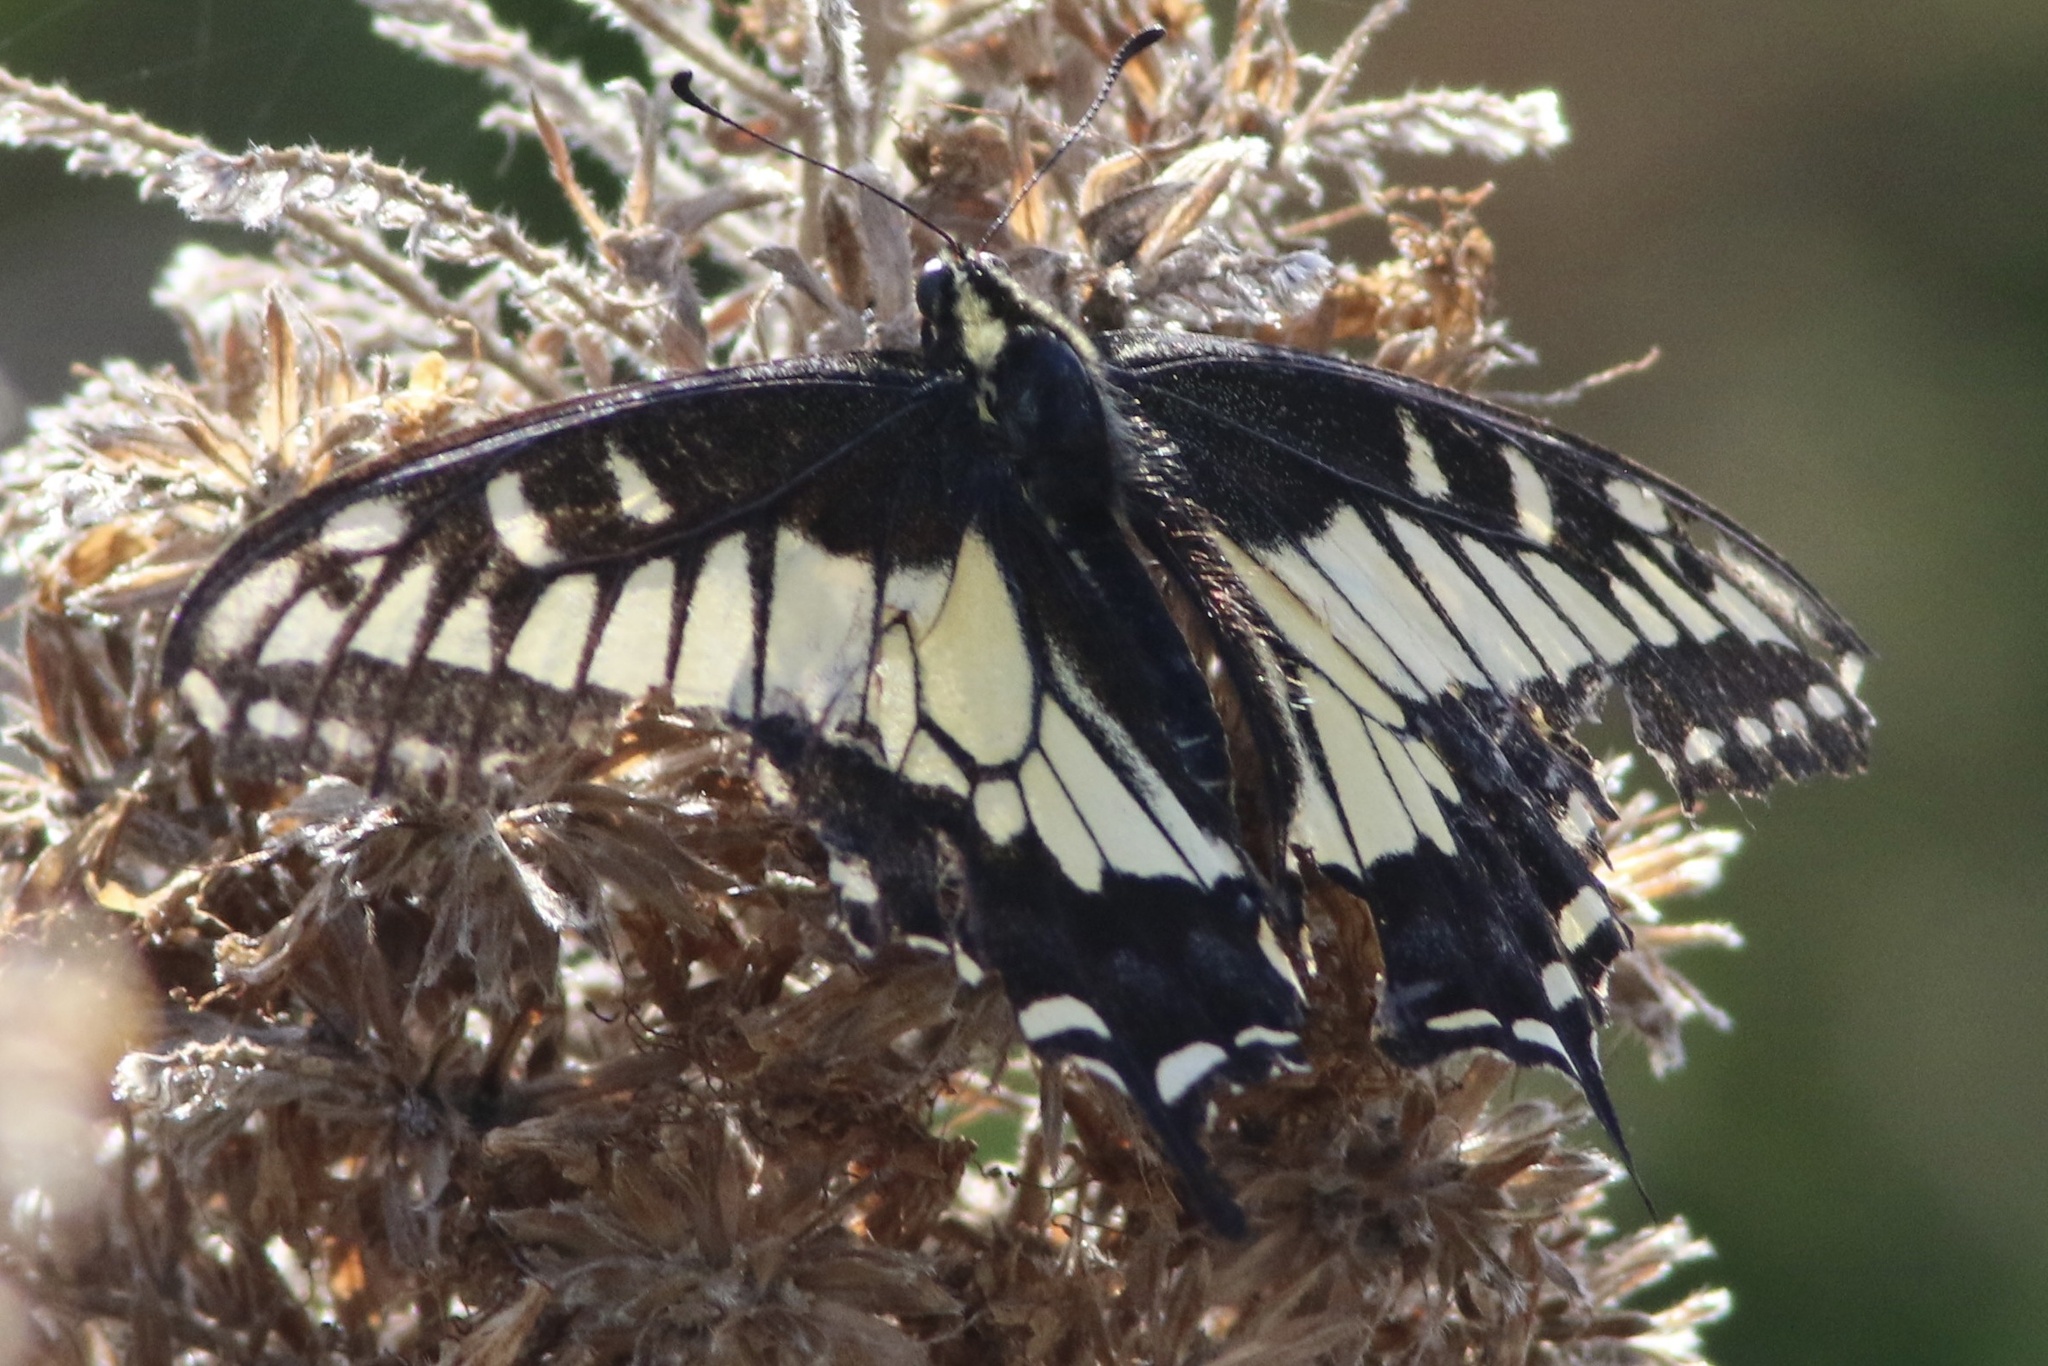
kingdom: Animalia
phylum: Arthropoda
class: Insecta
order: Lepidoptera
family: Papilionidae
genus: Papilio
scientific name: Papilio zelicaon
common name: Anise swallowtail
